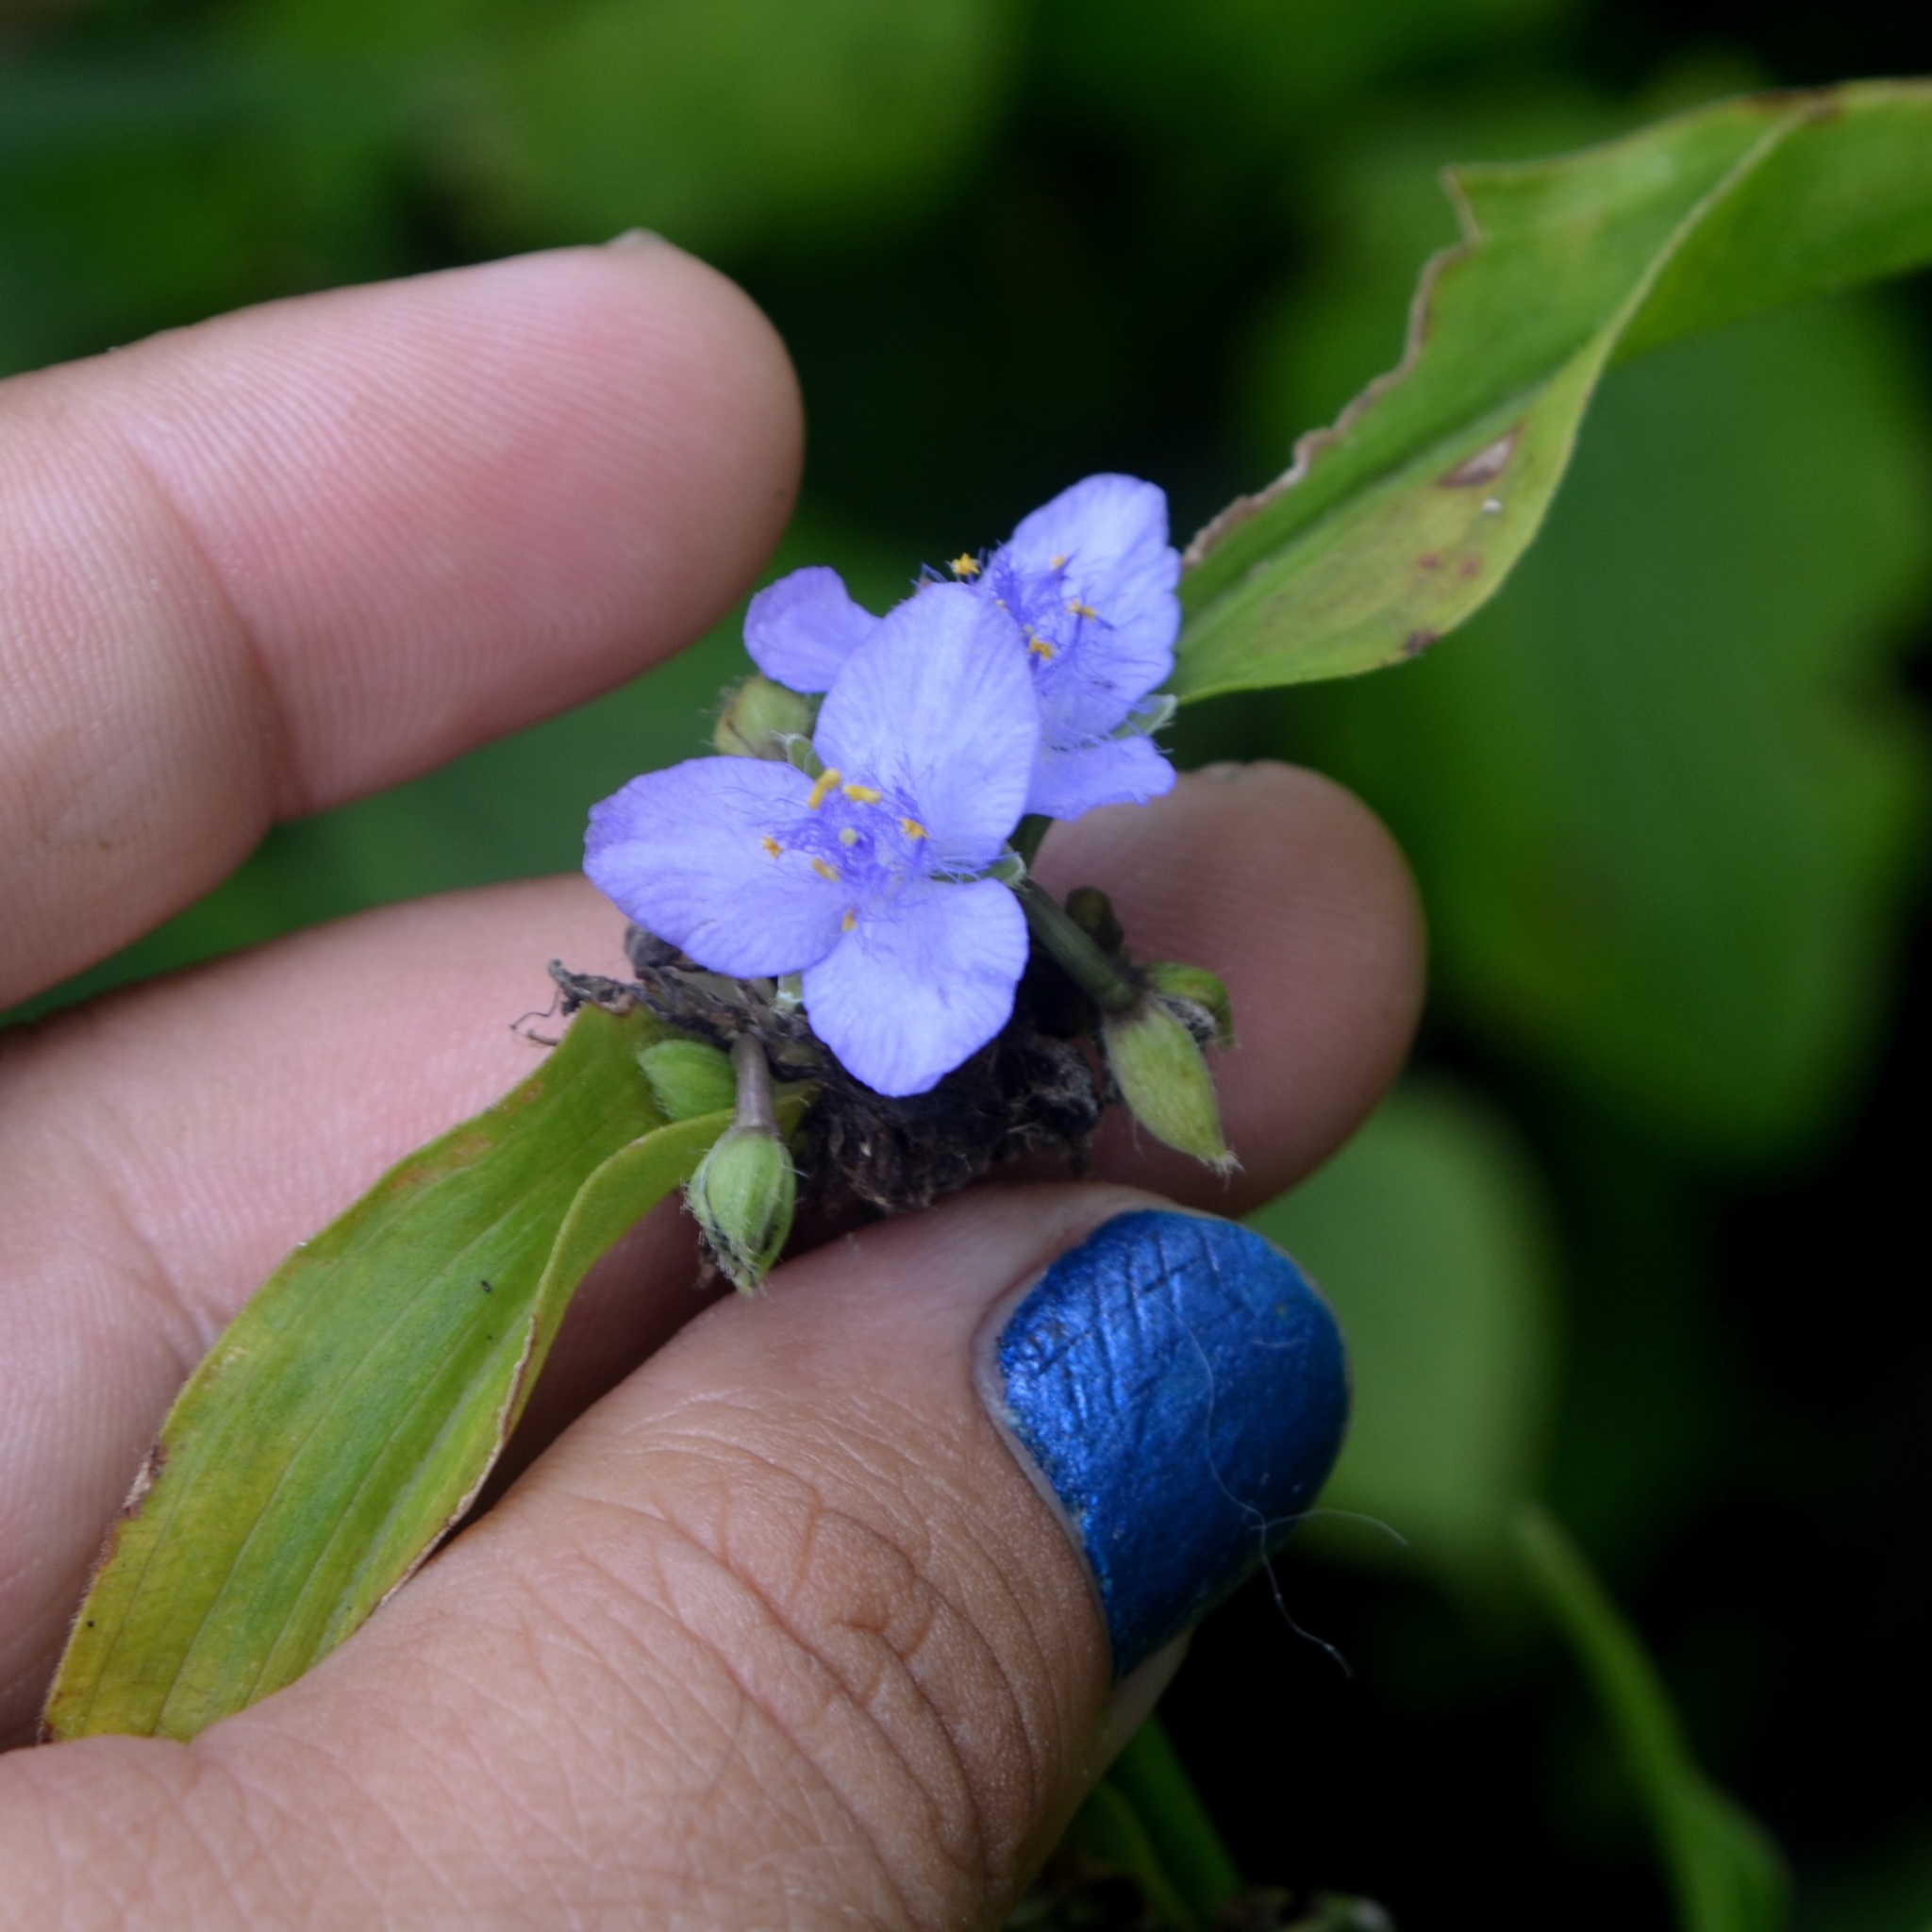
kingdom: Plantae
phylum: Tracheophyta
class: Liliopsida
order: Commelinales
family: Commelinaceae
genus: Tradescantia
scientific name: Tradescantia virginiana
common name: Spiderwort
